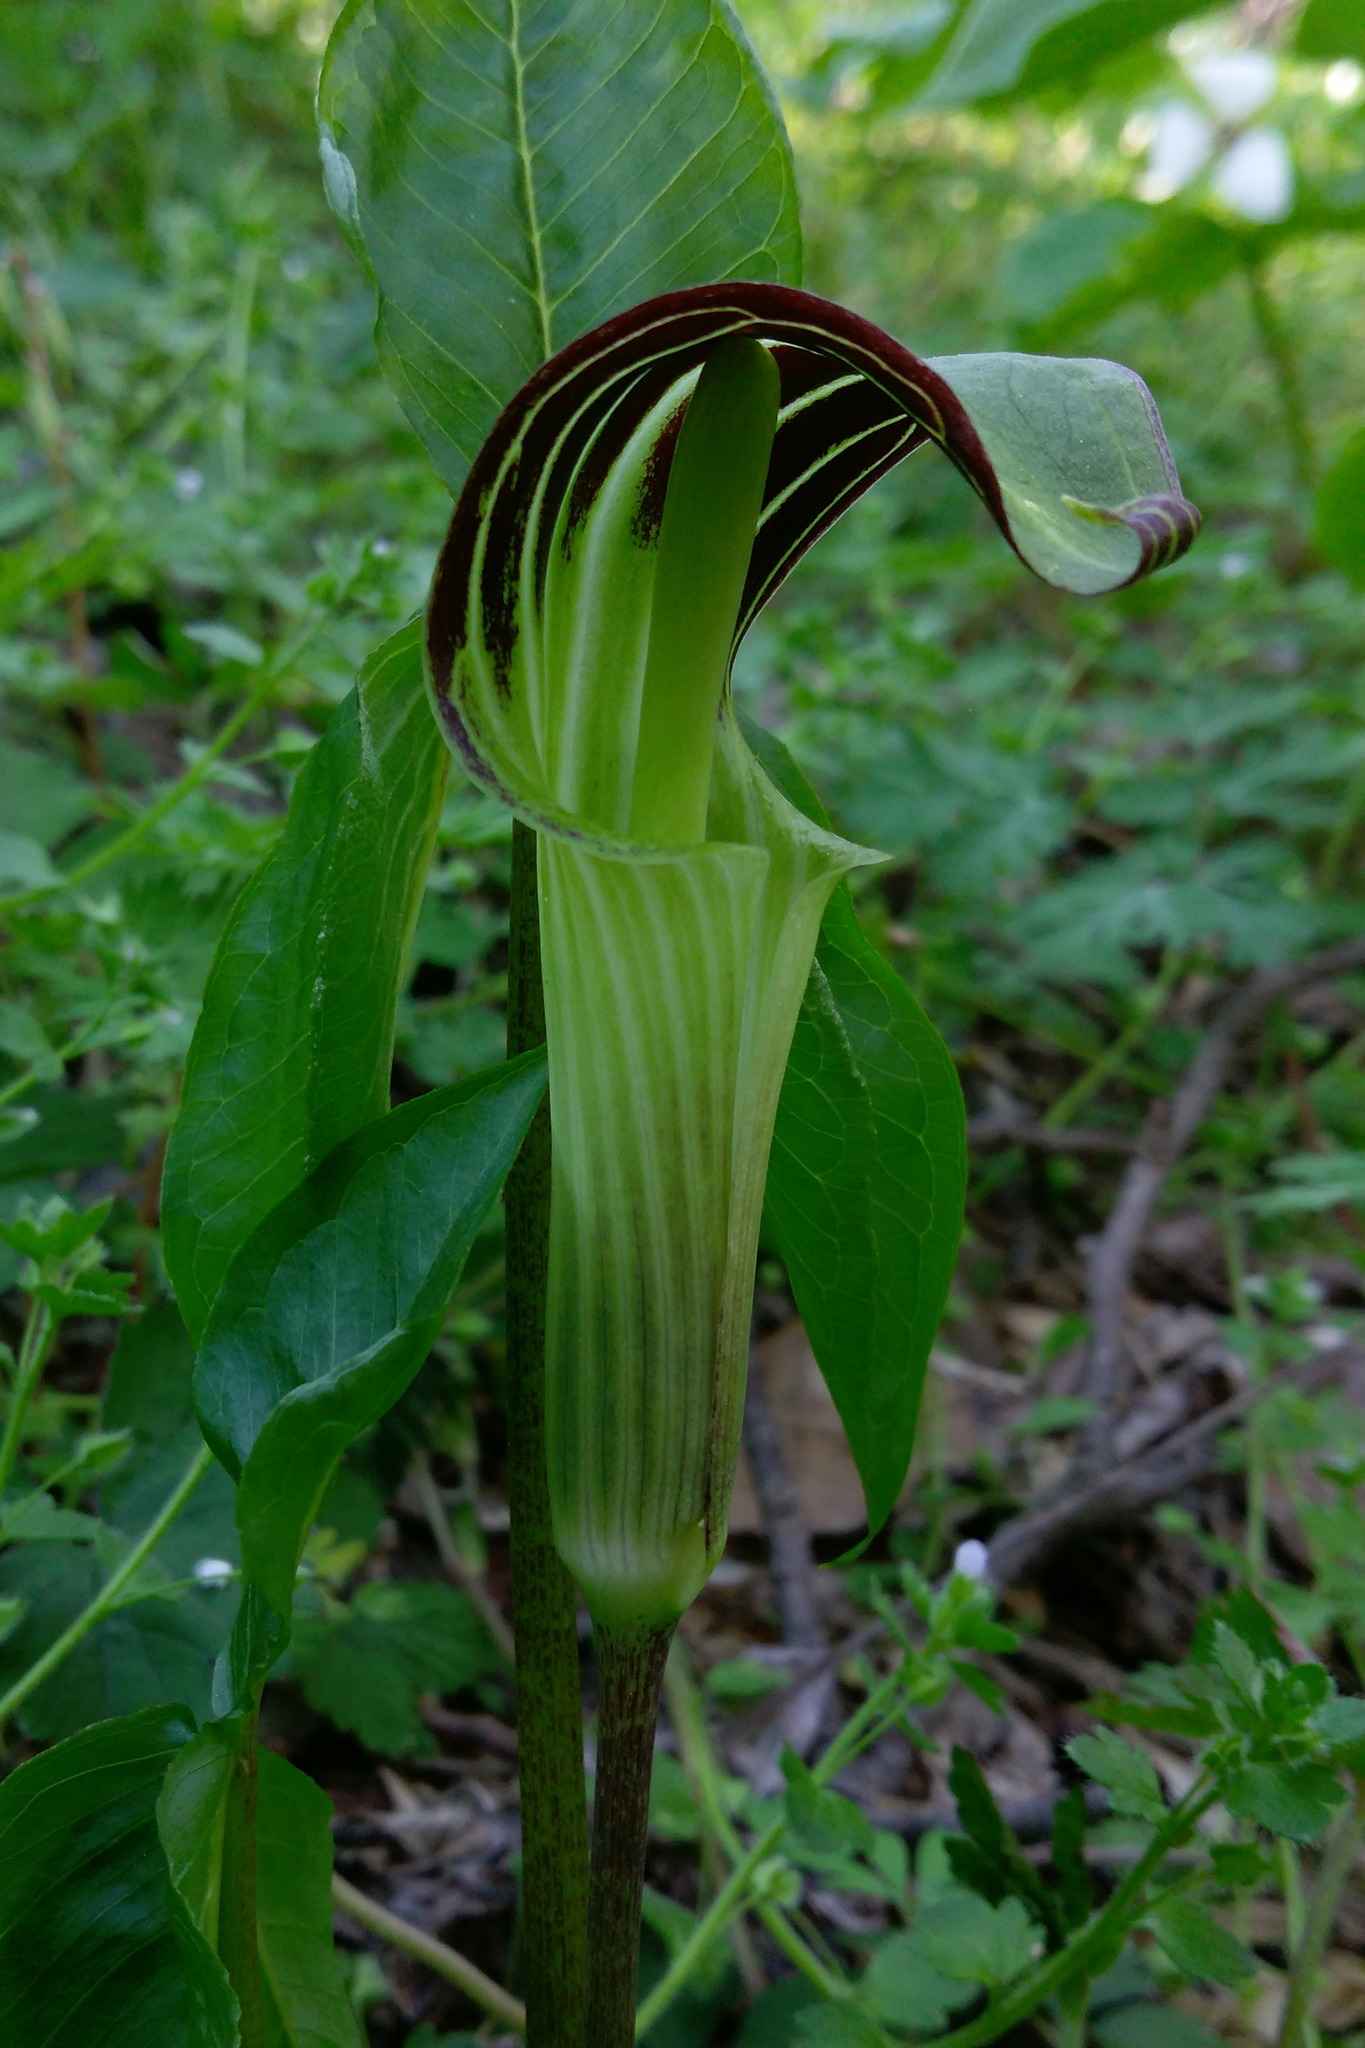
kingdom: Plantae
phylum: Tracheophyta
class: Liliopsida
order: Alismatales
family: Araceae
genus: Arisaema
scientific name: Arisaema triphyllum
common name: Jack-in-the-pulpit
